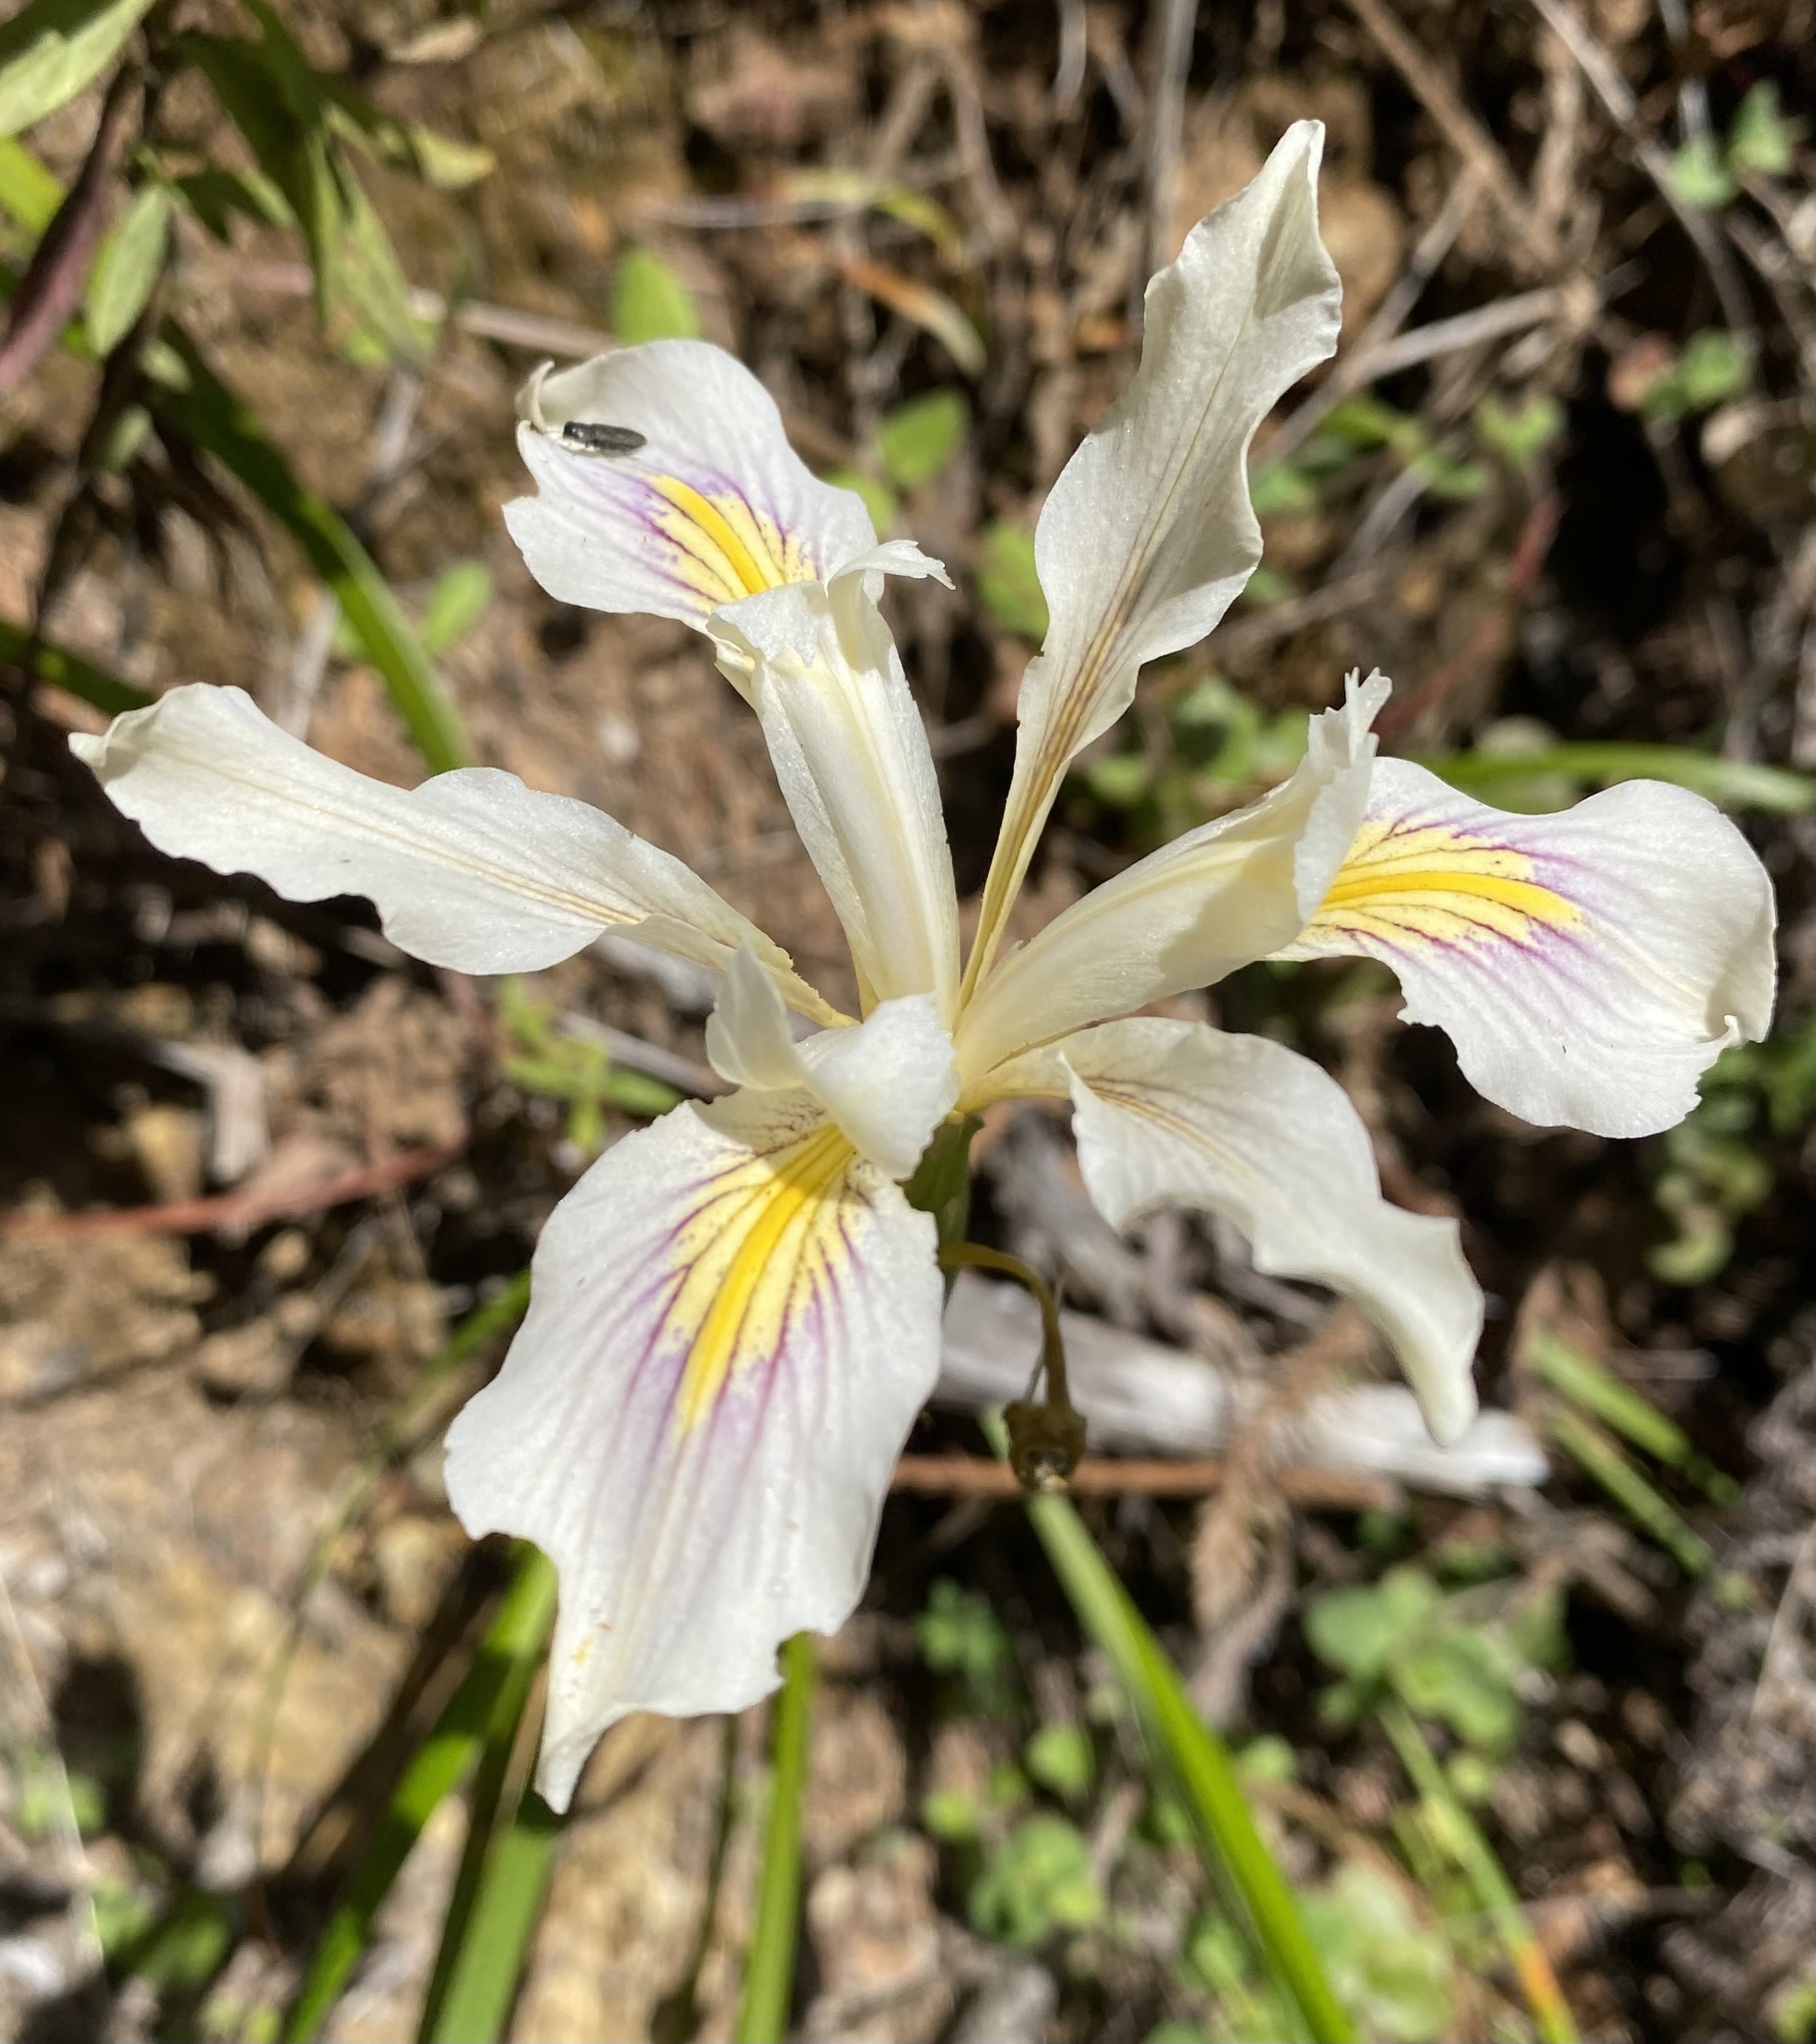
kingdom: Plantae
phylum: Tracheophyta
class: Liliopsida
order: Asparagales
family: Iridaceae
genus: Iris
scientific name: Iris douglasiana
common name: Marin iris
